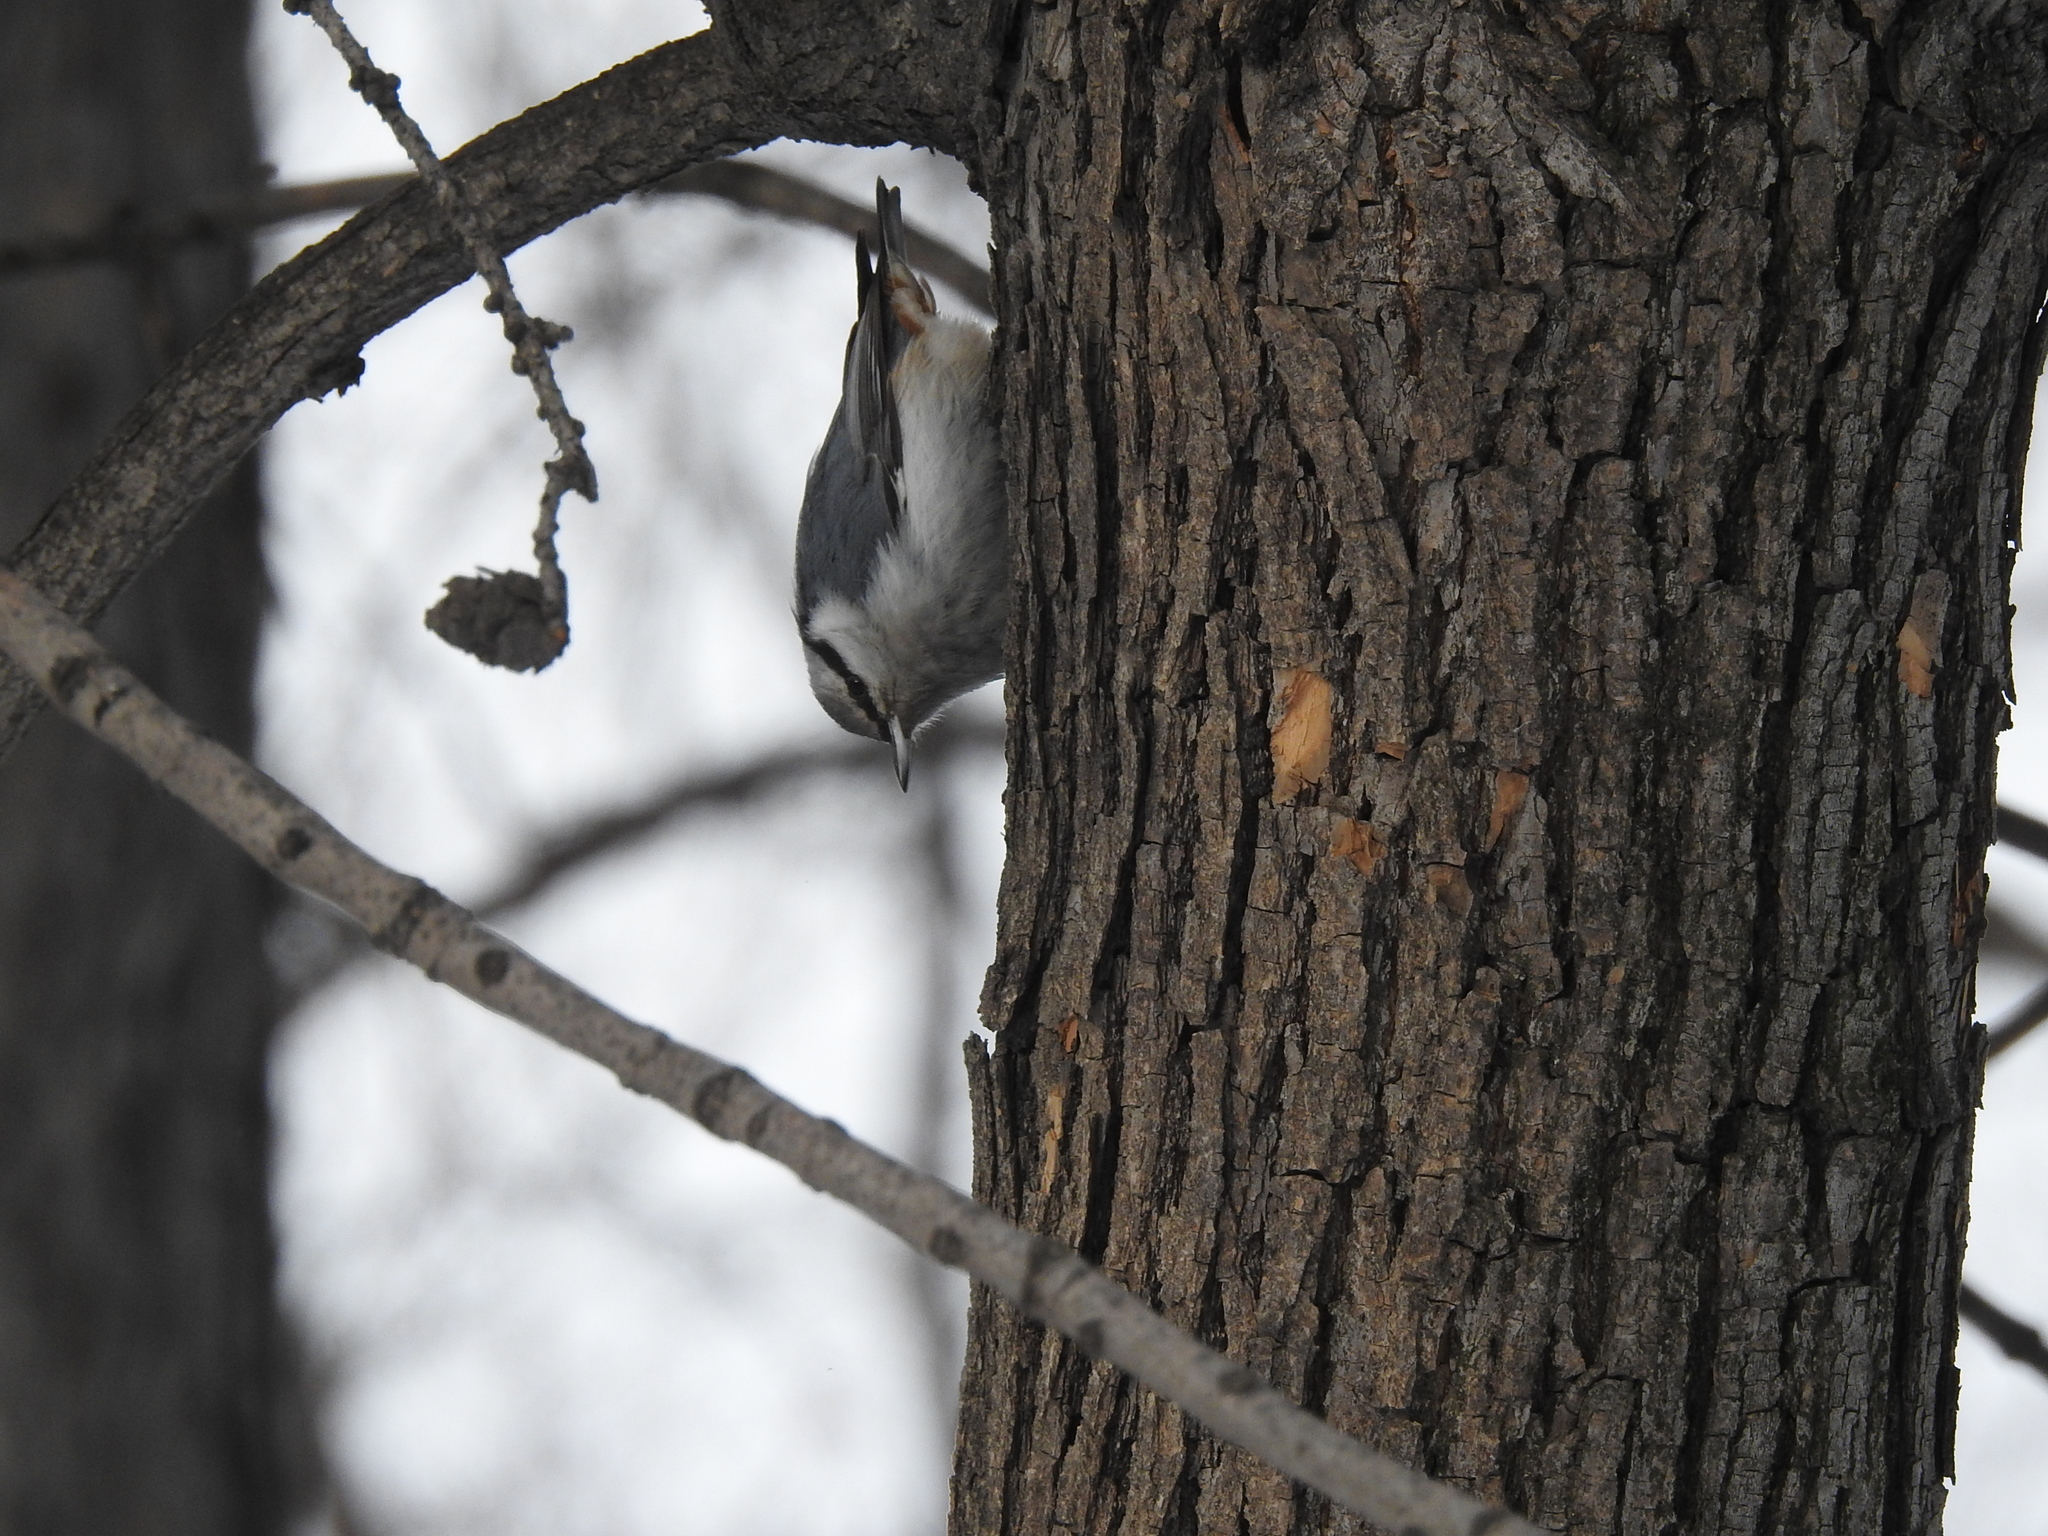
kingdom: Animalia
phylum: Chordata
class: Aves
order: Passeriformes
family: Sittidae
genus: Sitta
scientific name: Sitta europaea
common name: Eurasian nuthatch
